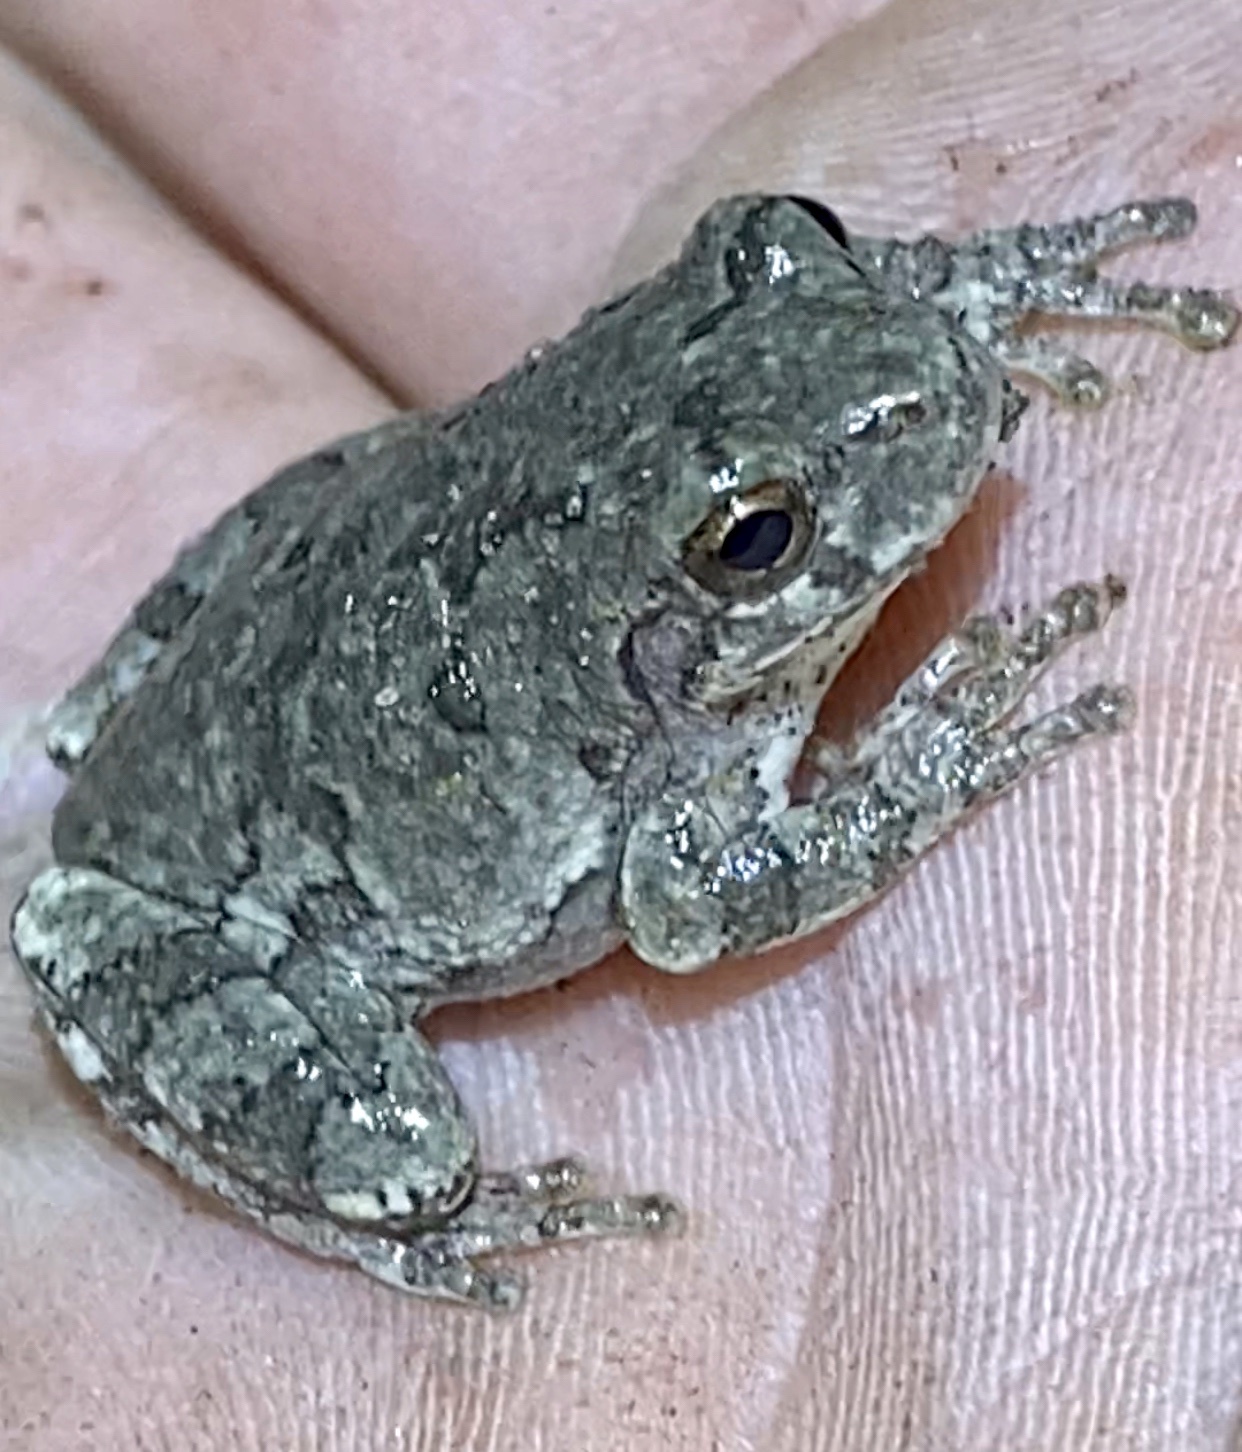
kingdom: Animalia
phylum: Chordata
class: Amphibia
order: Anura
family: Hylidae
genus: Hyla
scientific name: Hyla
